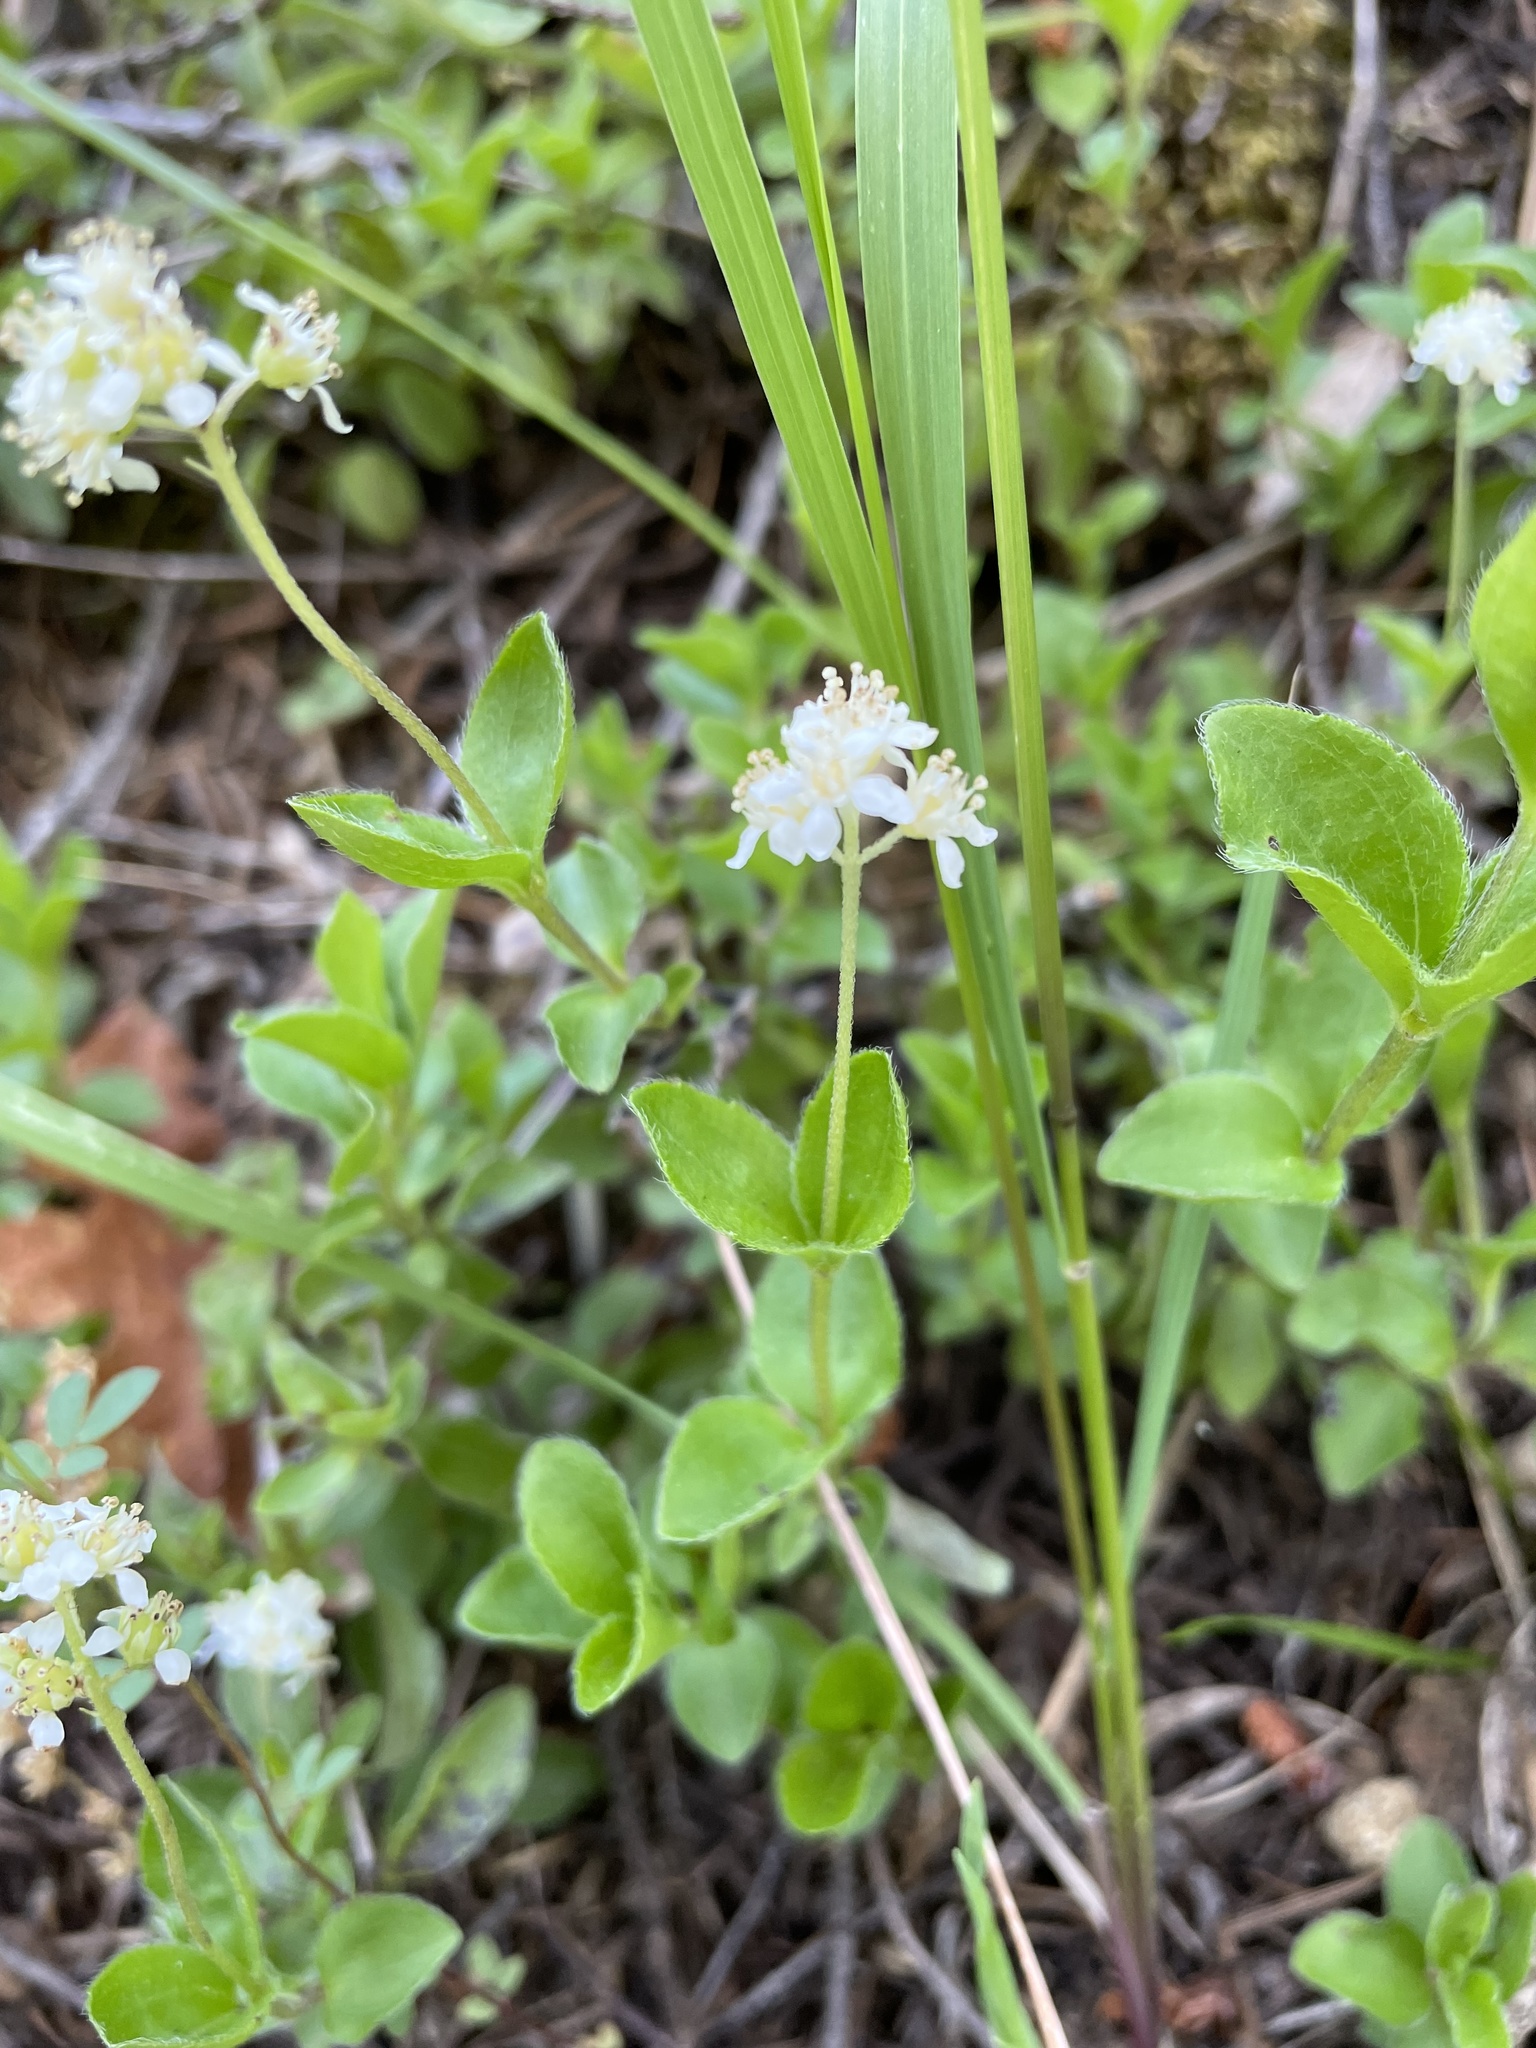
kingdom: Plantae
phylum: Tracheophyta
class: Magnoliopsida
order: Cornales
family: Hydrangeaceae
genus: Whipplea
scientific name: Whipplea modesta
